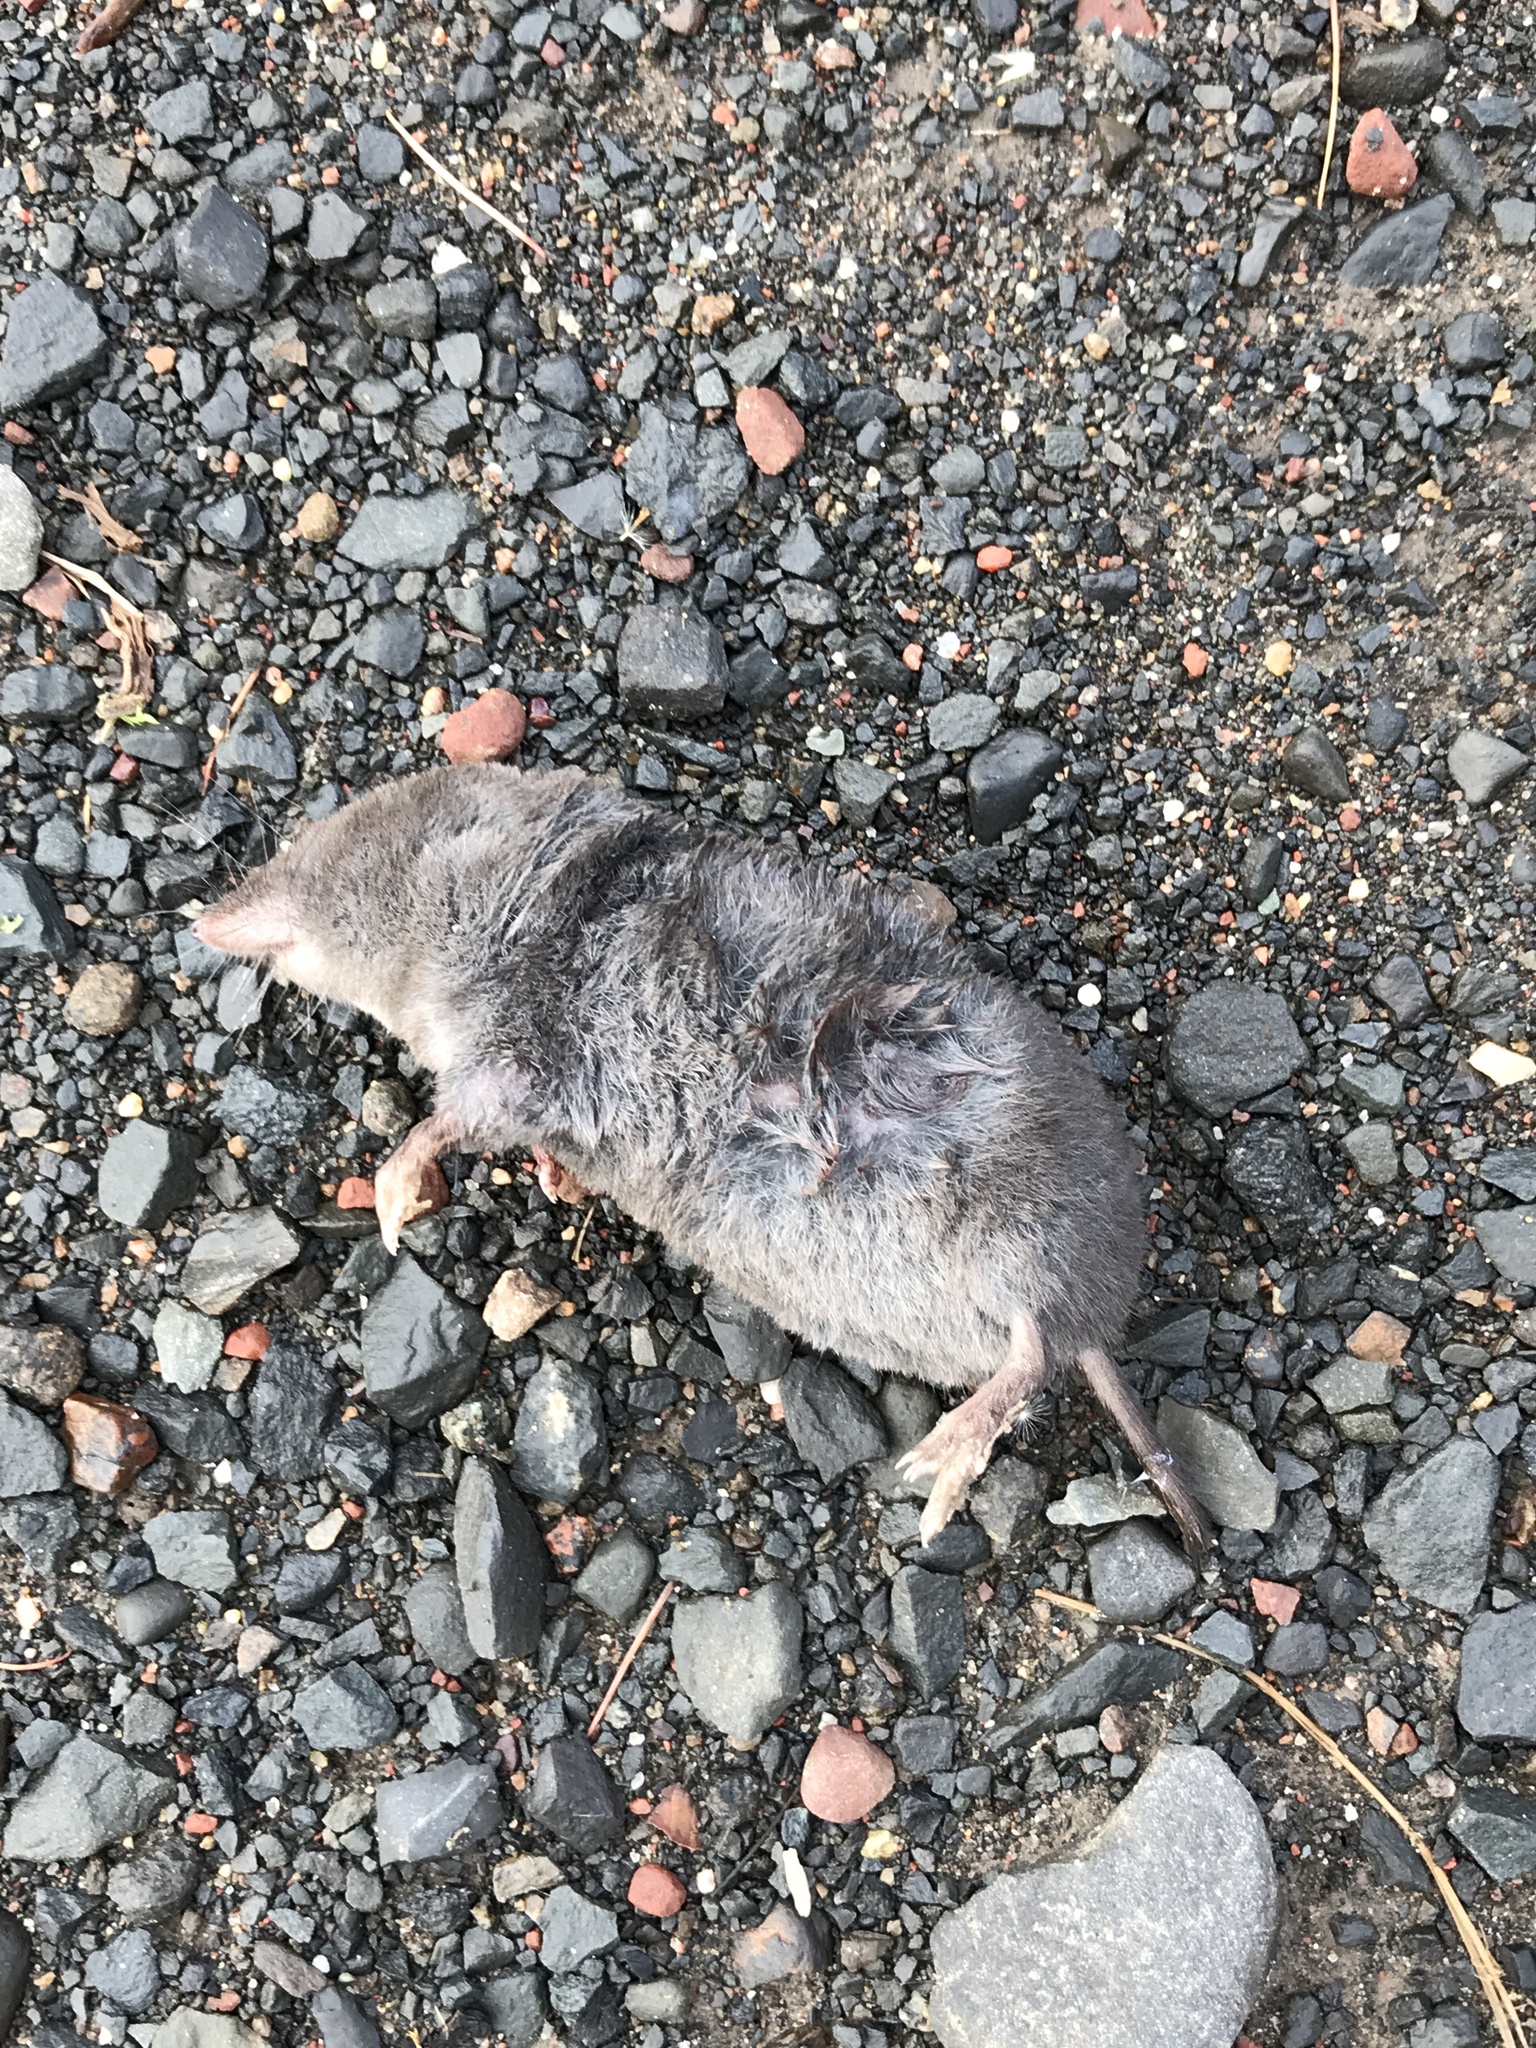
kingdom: Animalia
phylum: Chordata
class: Mammalia
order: Soricomorpha
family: Soricidae
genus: Blarina
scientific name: Blarina brevicauda
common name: Northern short-tailed shrew
